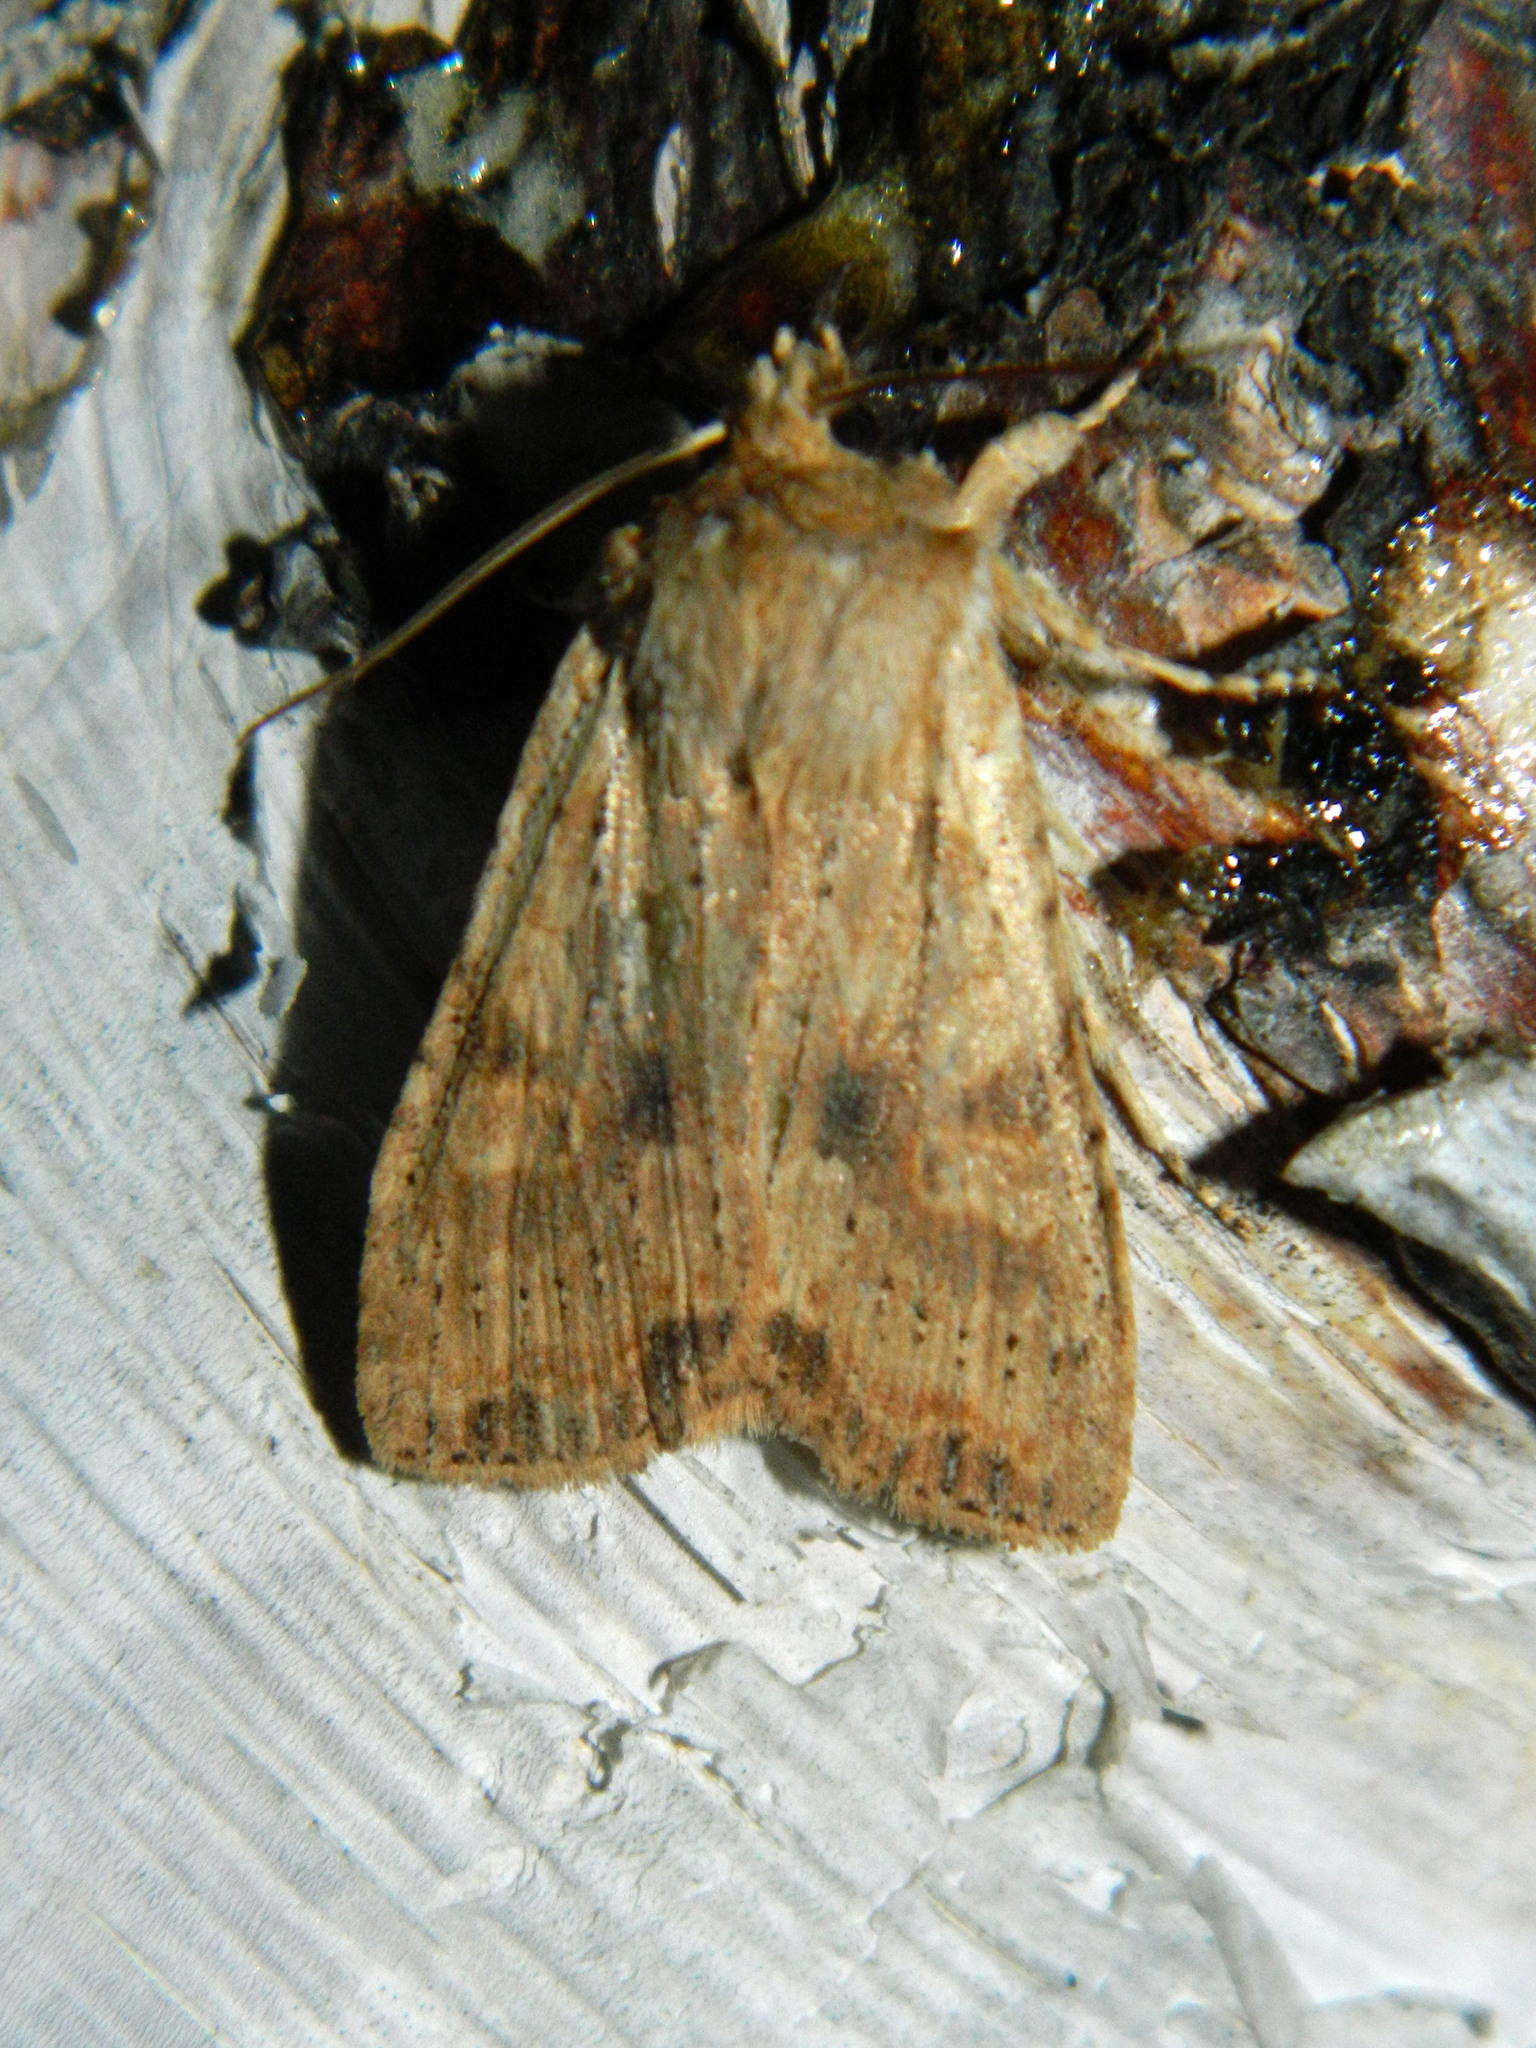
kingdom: Animalia
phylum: Arthropoda
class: Insecta
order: Lepidoptera
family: Noctuidae
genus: Lithophane
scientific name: Lithophane innominata
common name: Nameless pinion moth
